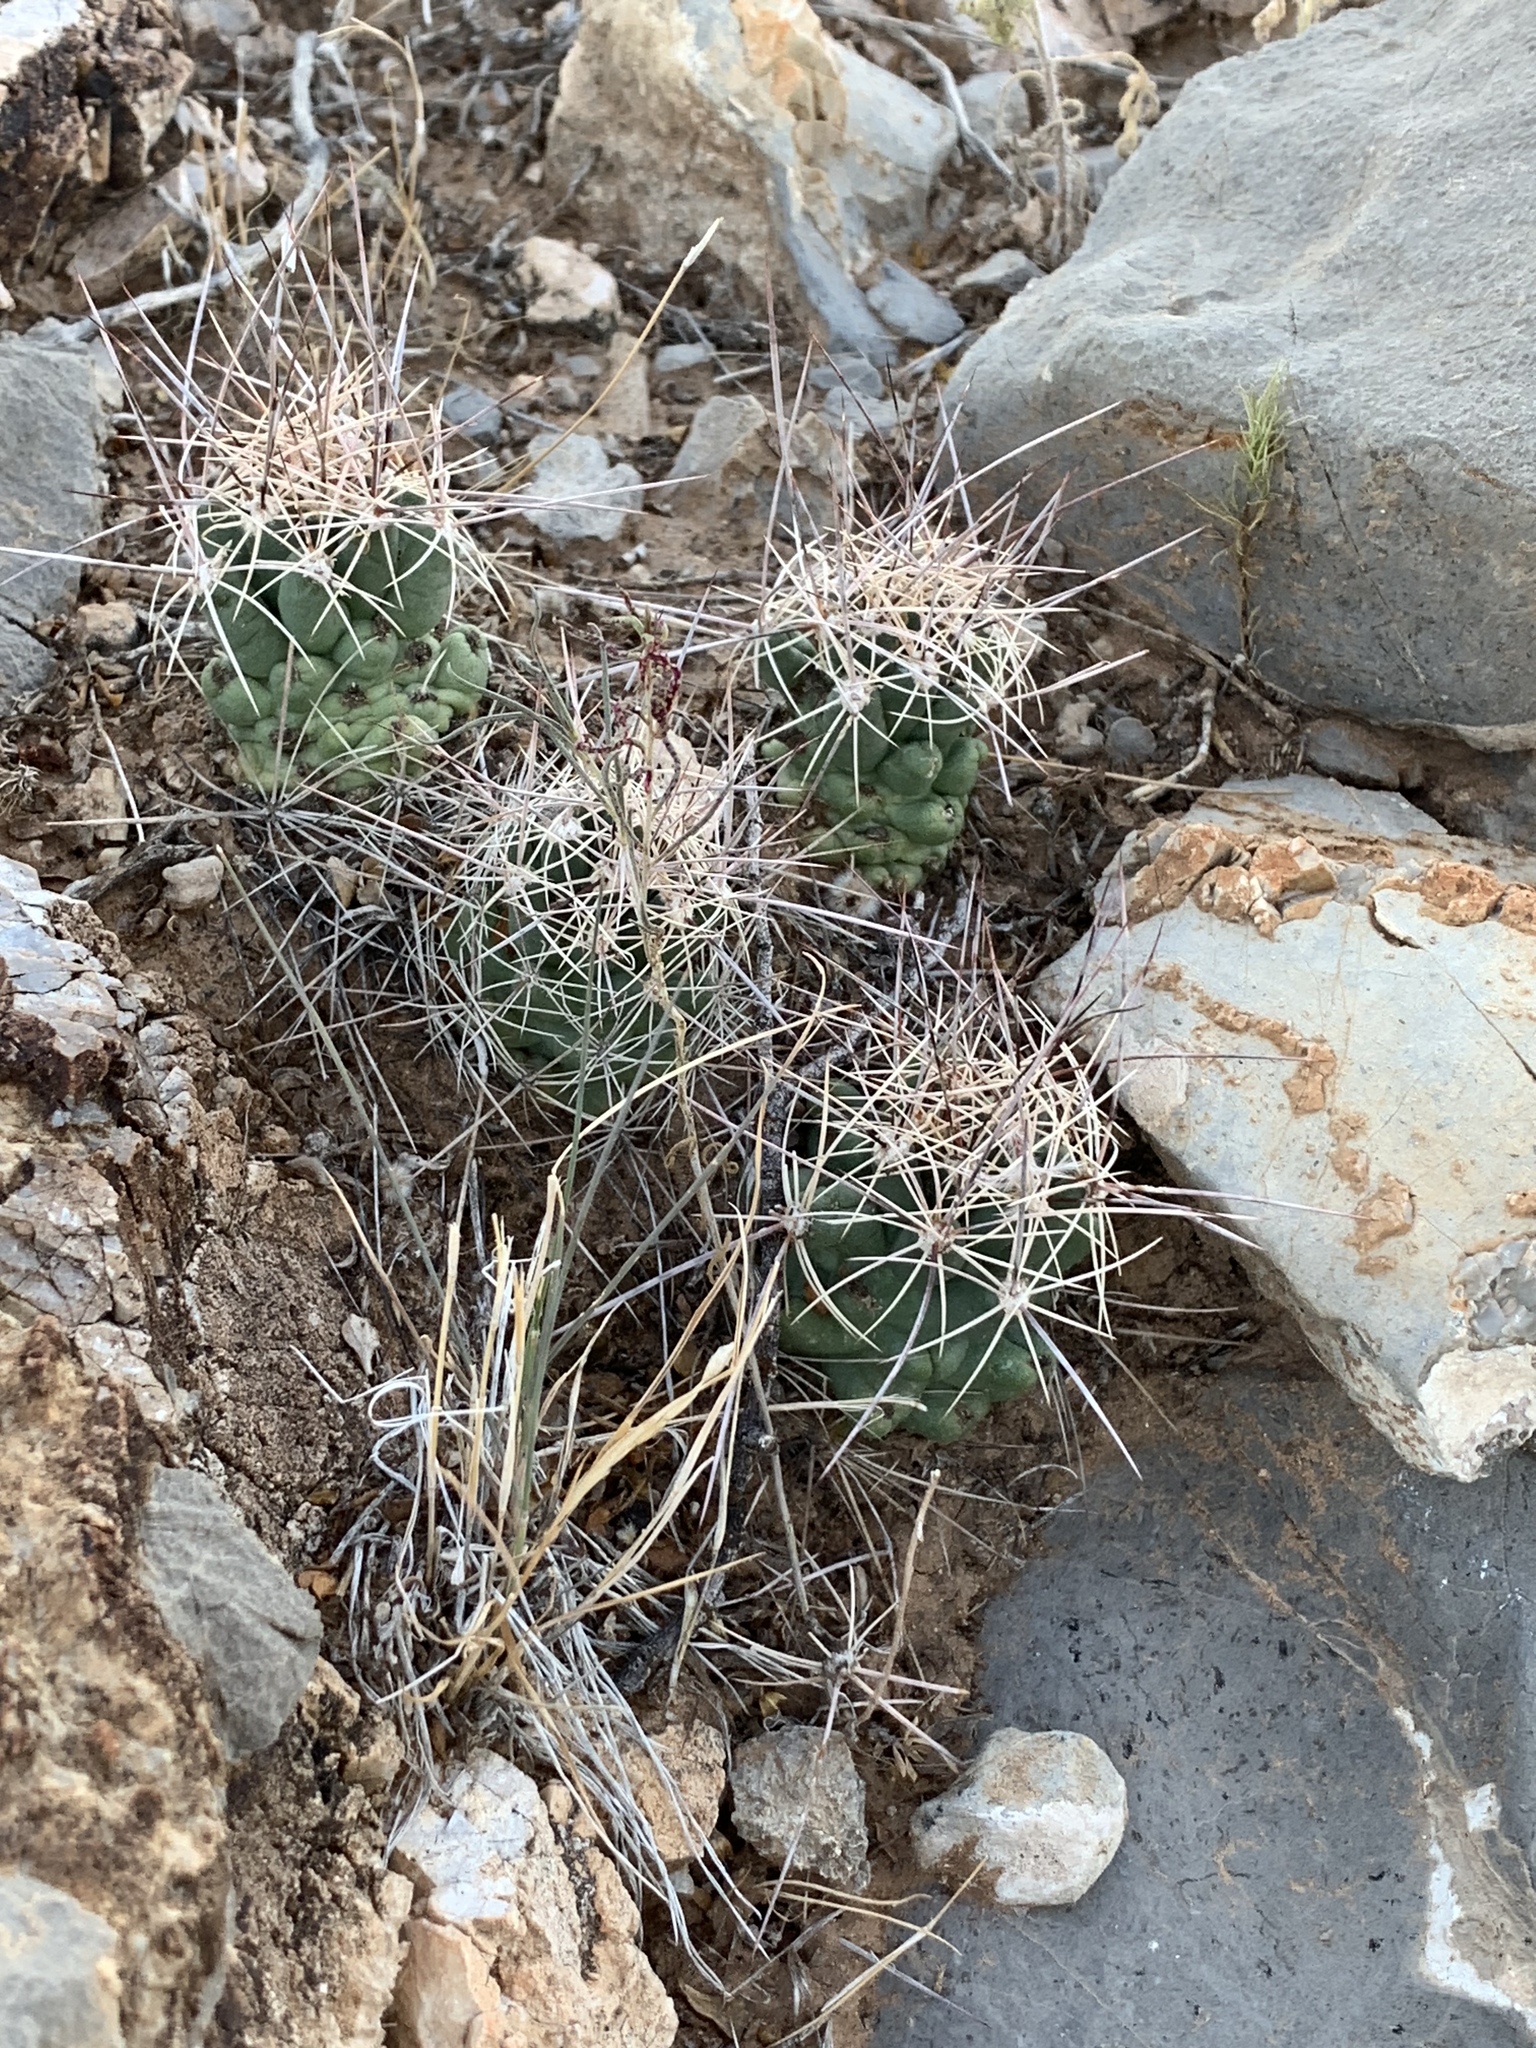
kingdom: Plantae
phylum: Tracheophyta
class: Magnoliopsida
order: Caryophyllales
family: Cactaceae
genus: Coryphantha
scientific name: Coryphantha macromeris
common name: Nipple beehive cactus
